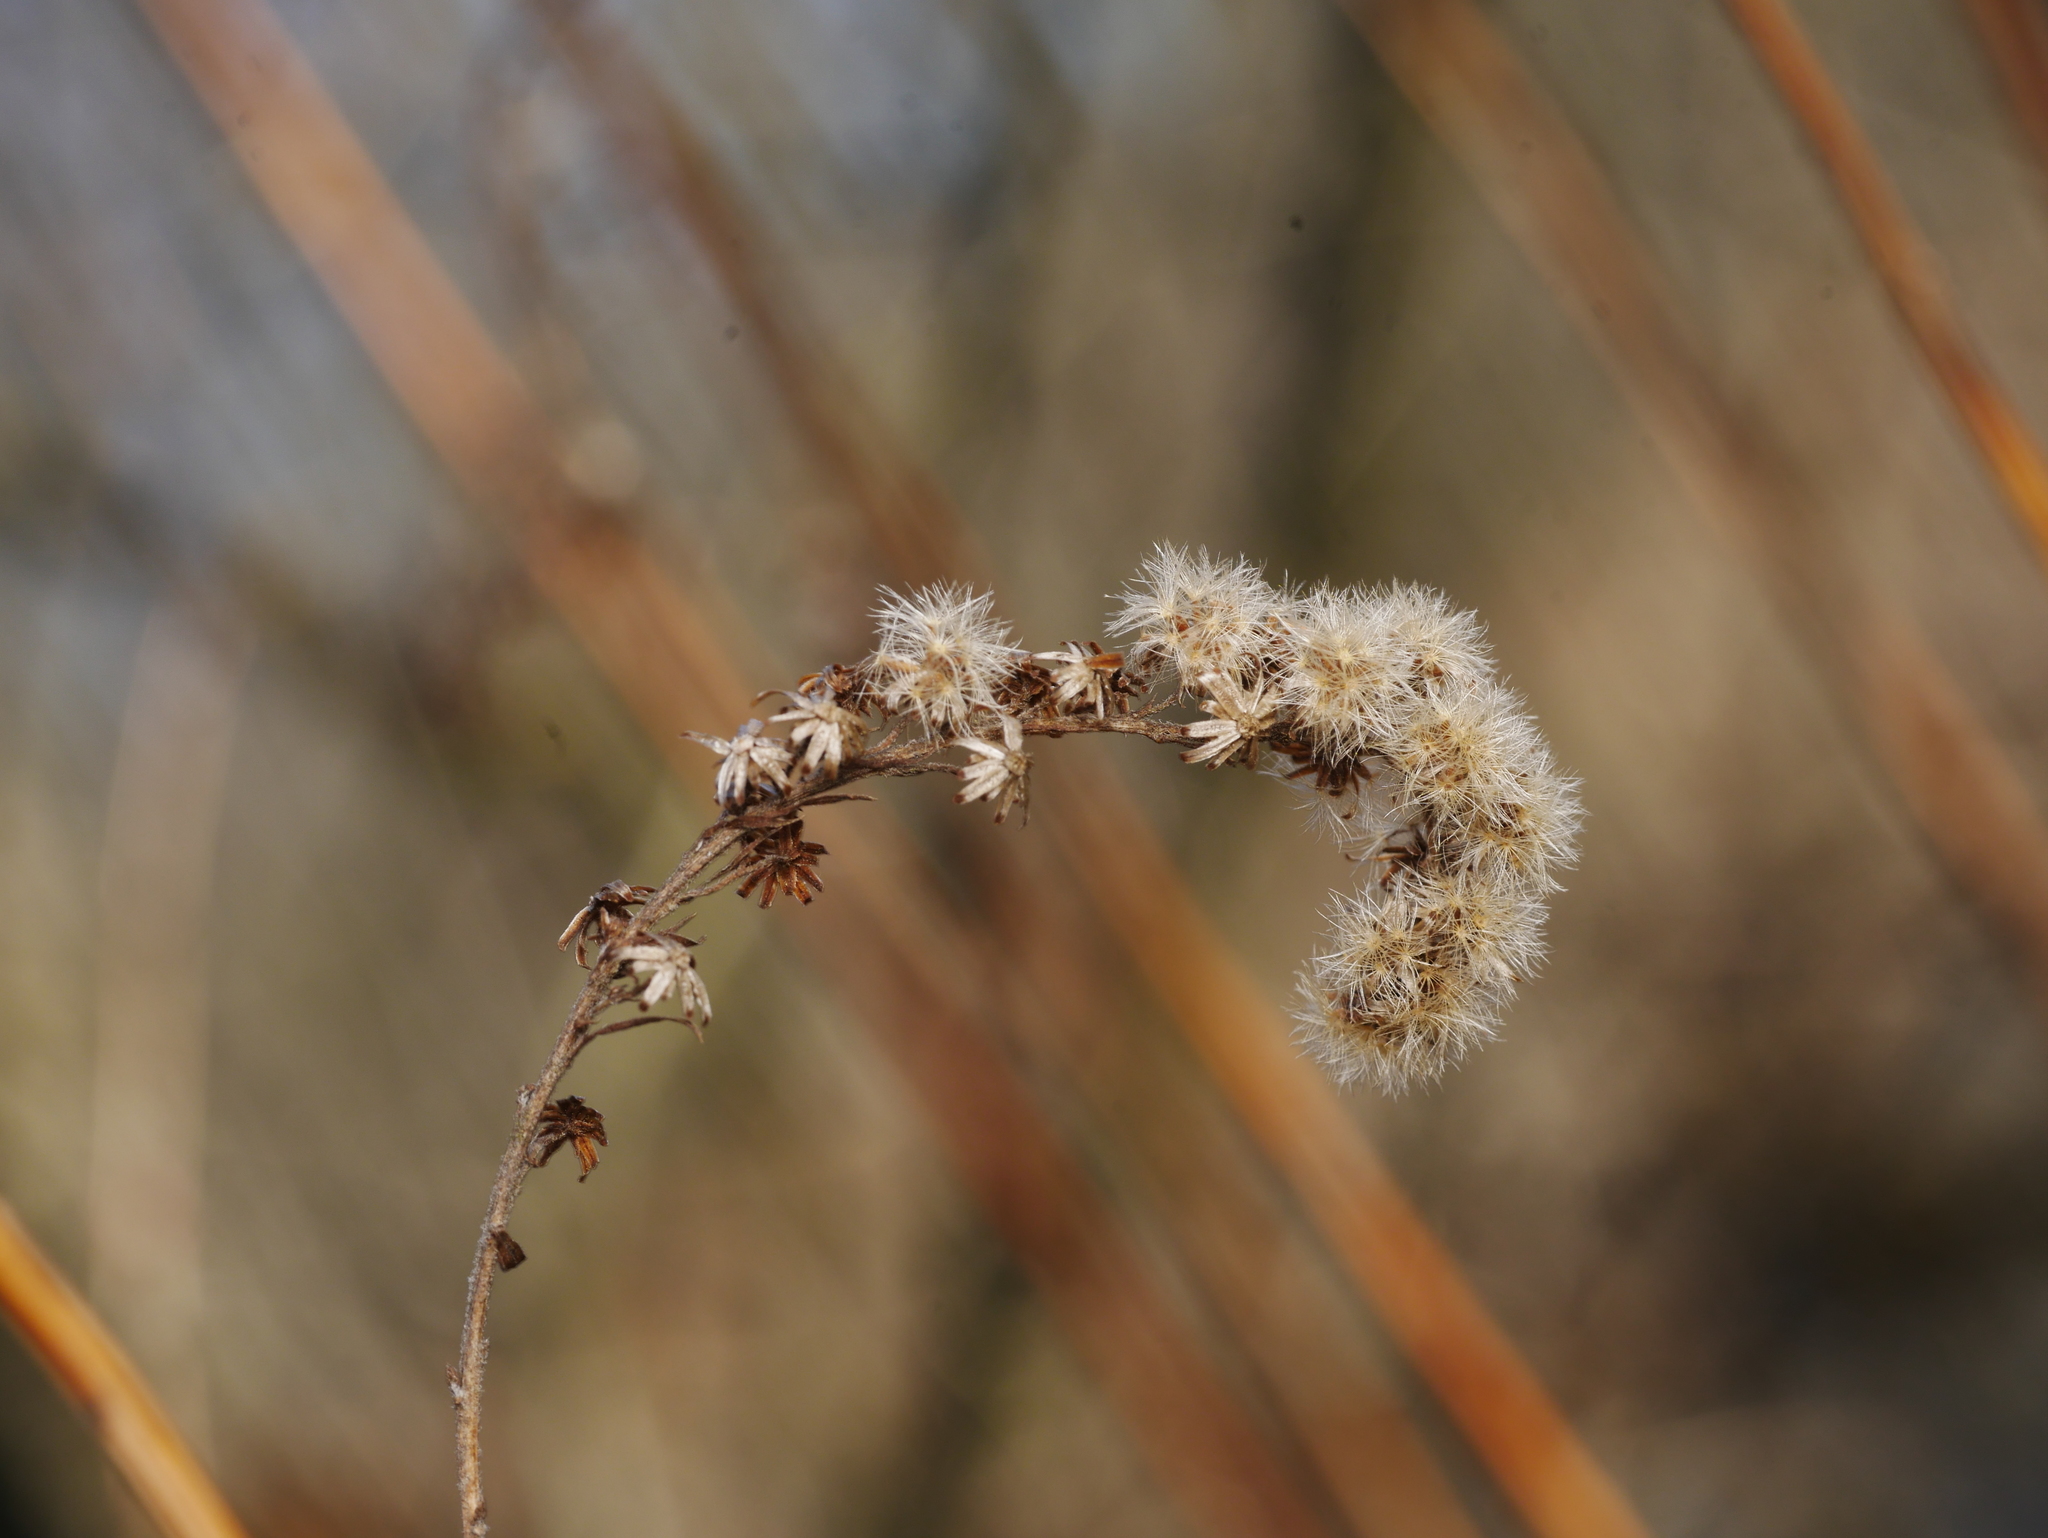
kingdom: Plantae
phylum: Tracheophyta
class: Magnoliopsida
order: Asterales
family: Asteraceae
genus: Solidago
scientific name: Solidago canadensis
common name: Canada goldenrod
